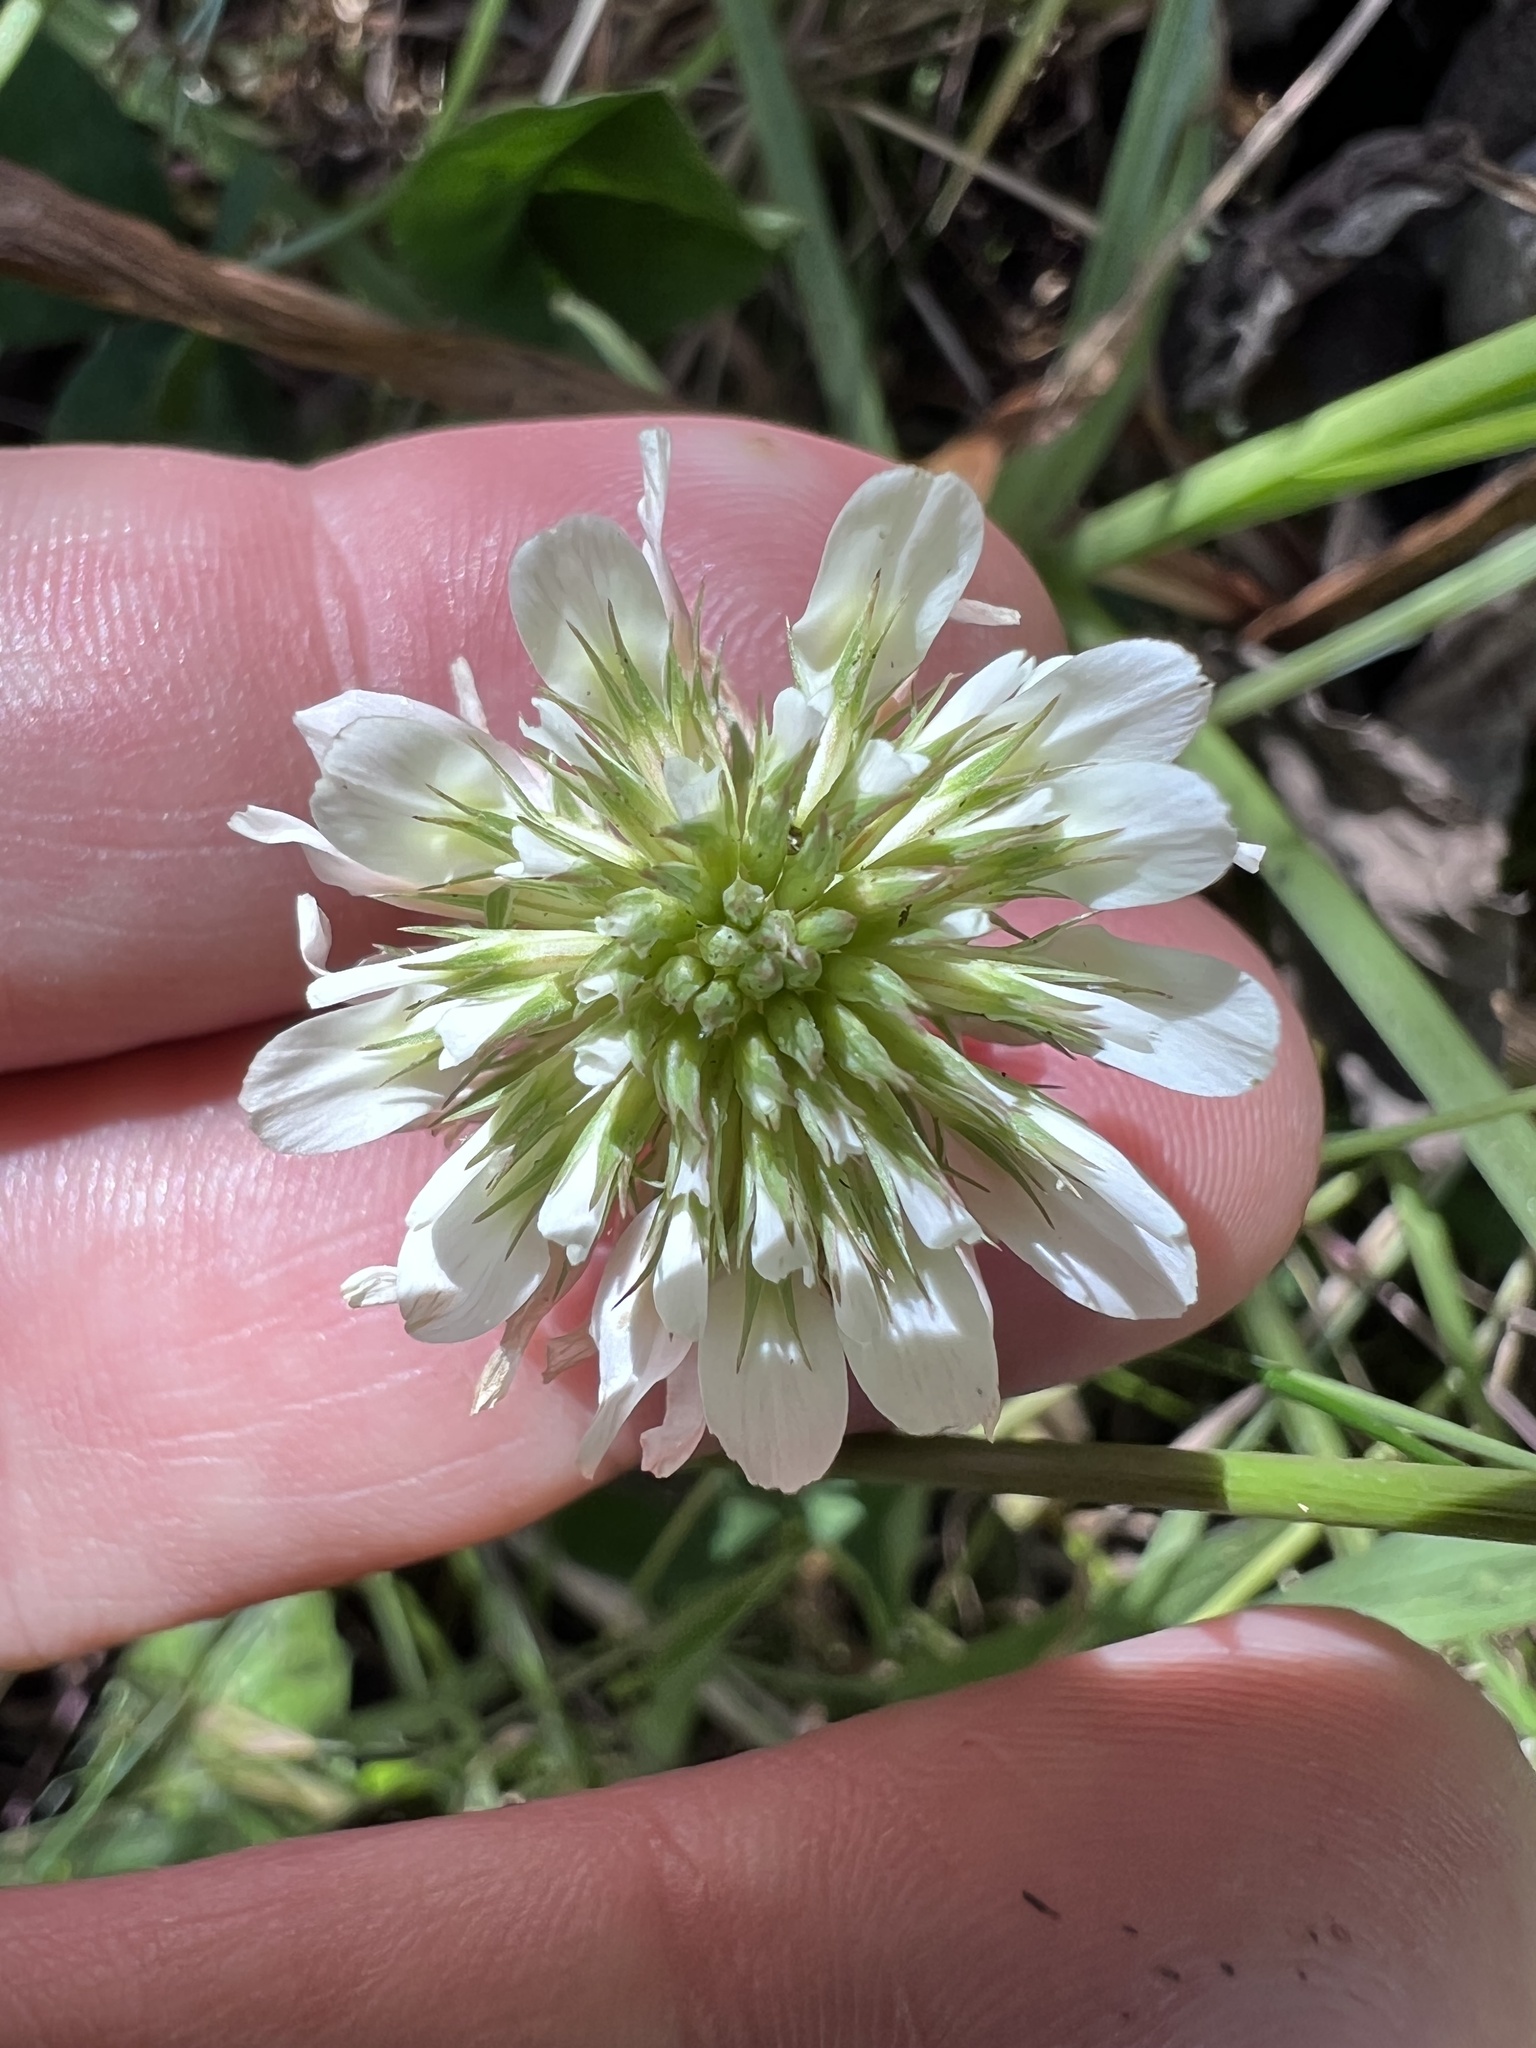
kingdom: Plantae
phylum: Tracheophyta
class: Magnoliopsida
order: Fabales
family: Fabaceae
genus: Trifolium
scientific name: Trifolium repens
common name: White clover
